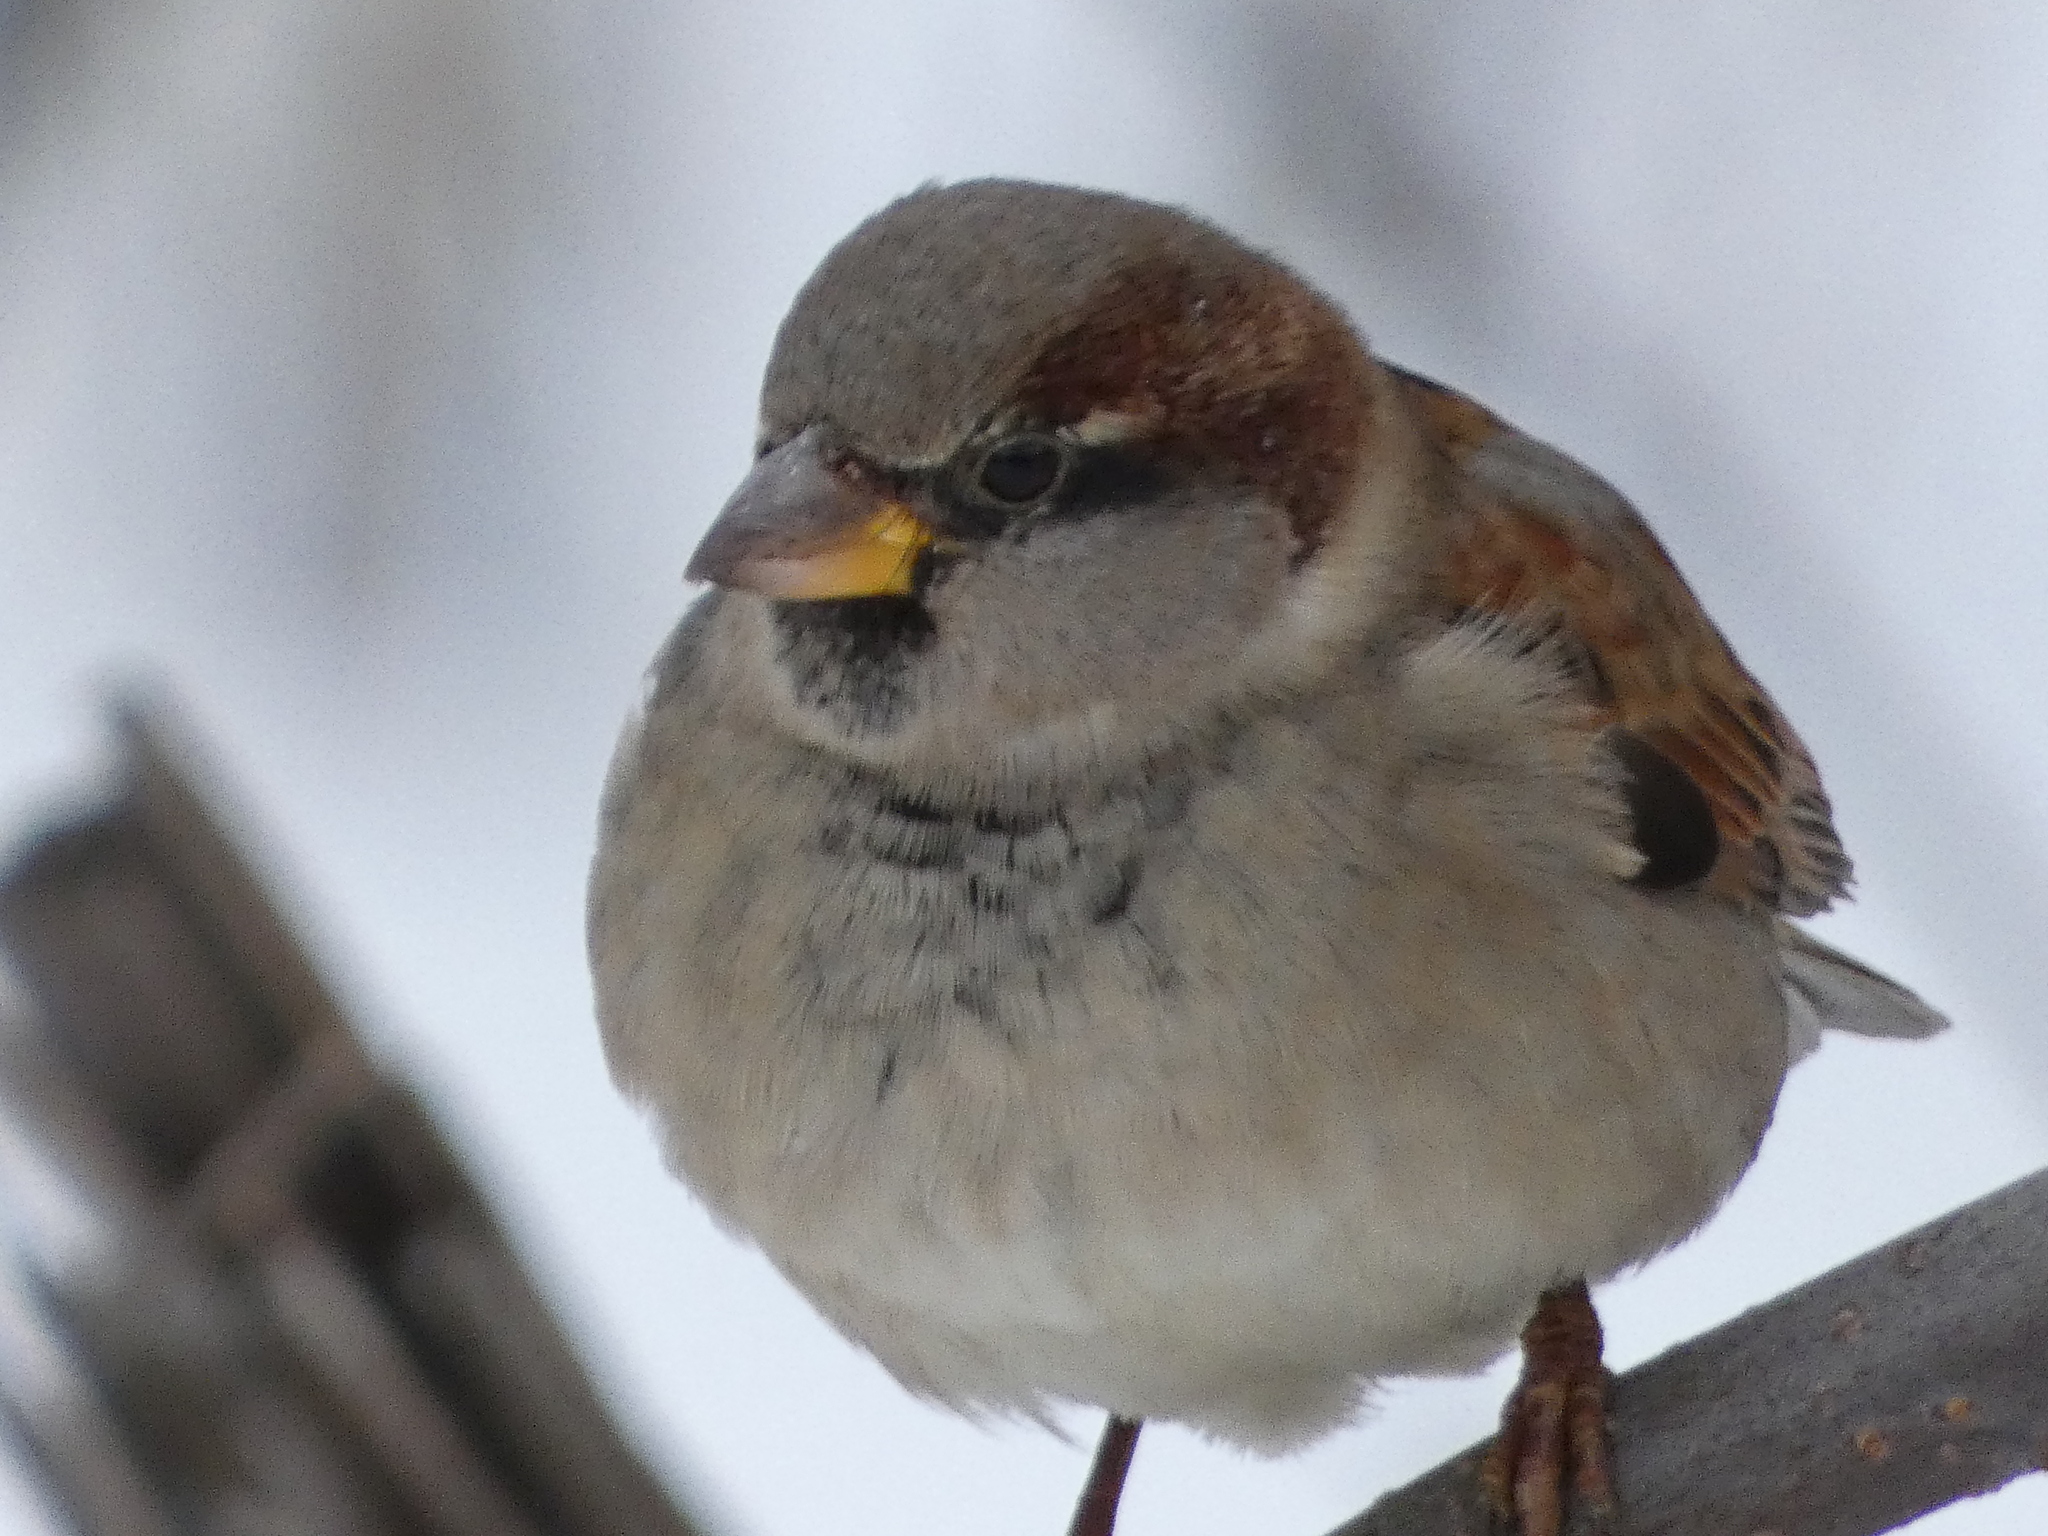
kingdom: Animalia
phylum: Chordata
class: Aves
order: Passeriformes
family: Passeridae
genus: Passer
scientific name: Passer domesticus
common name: House sparrow
